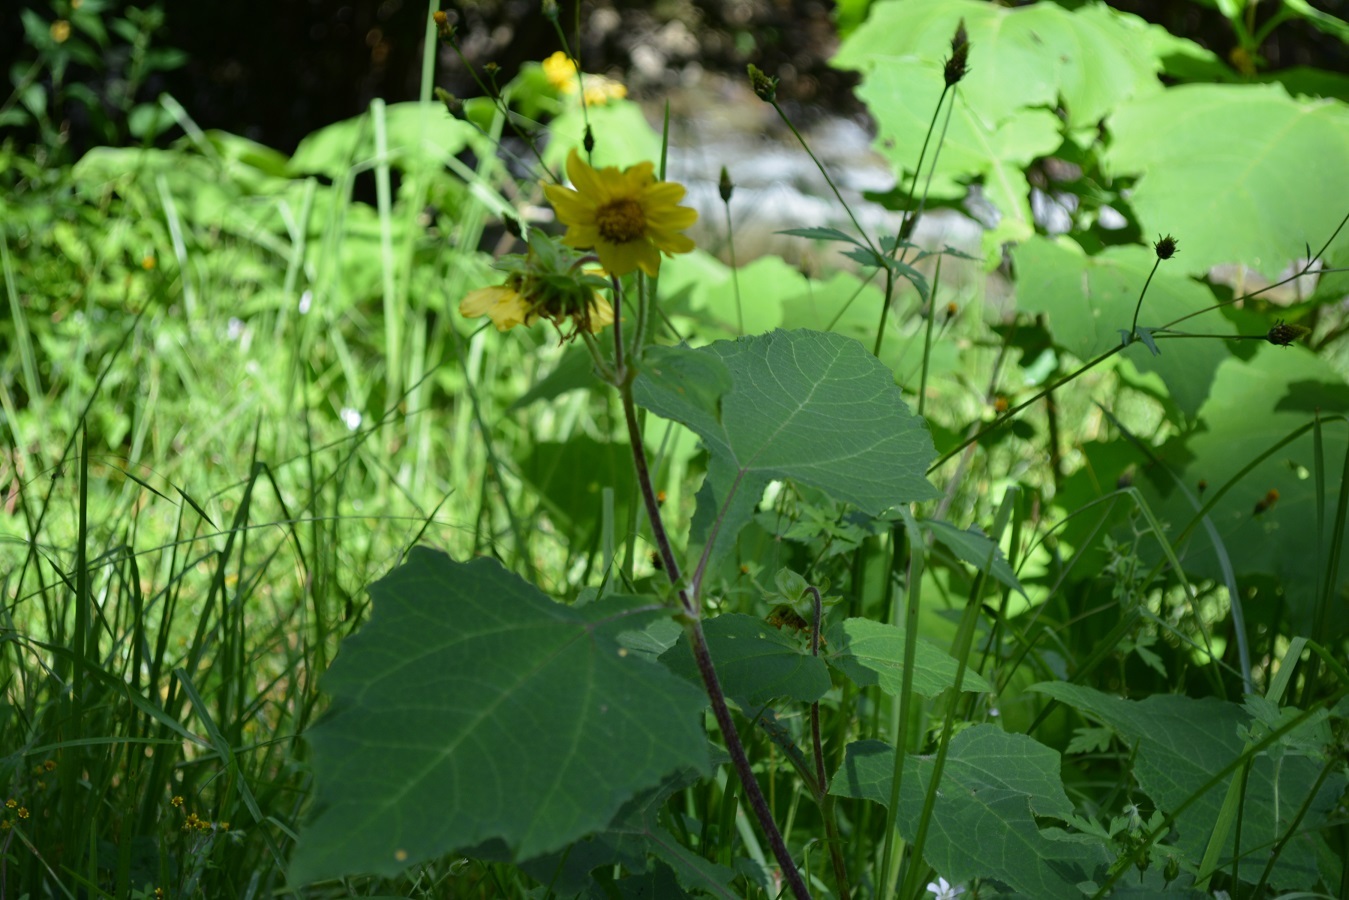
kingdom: Plantae
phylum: Tracheophyta
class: Magnoliopsida
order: Asterales
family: Asteraceae
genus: Smallanthus
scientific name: Smallanthus maculatus
